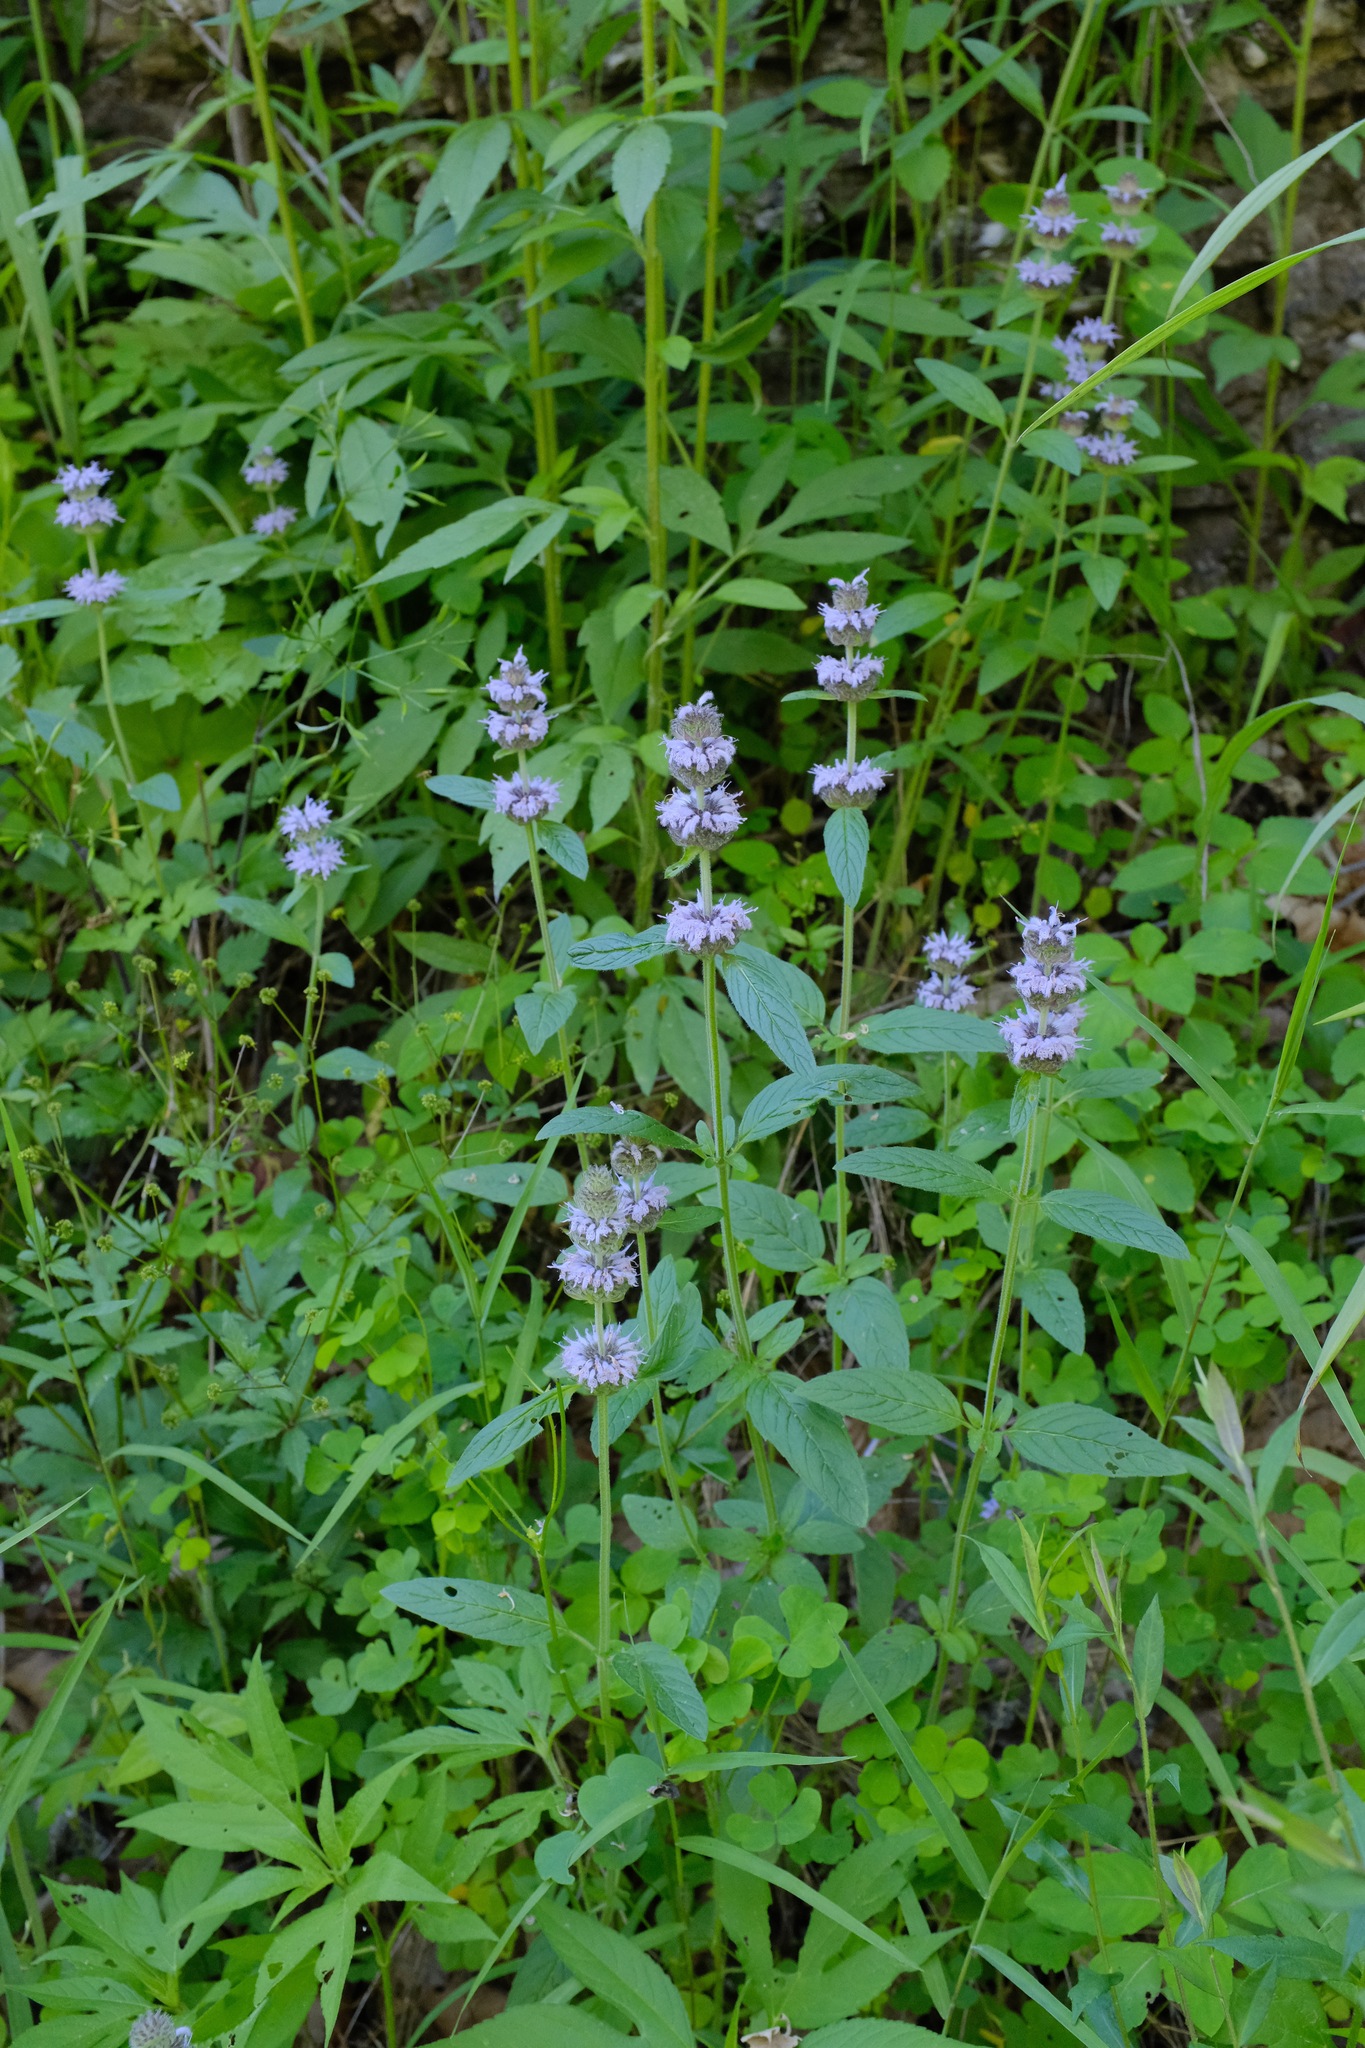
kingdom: Plantae
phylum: Tracheophyta
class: Magnoliopsida
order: Lamiales
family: Lamiaceae
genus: Blephilia
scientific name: Blephilia ciliata
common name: Downy blephilia
